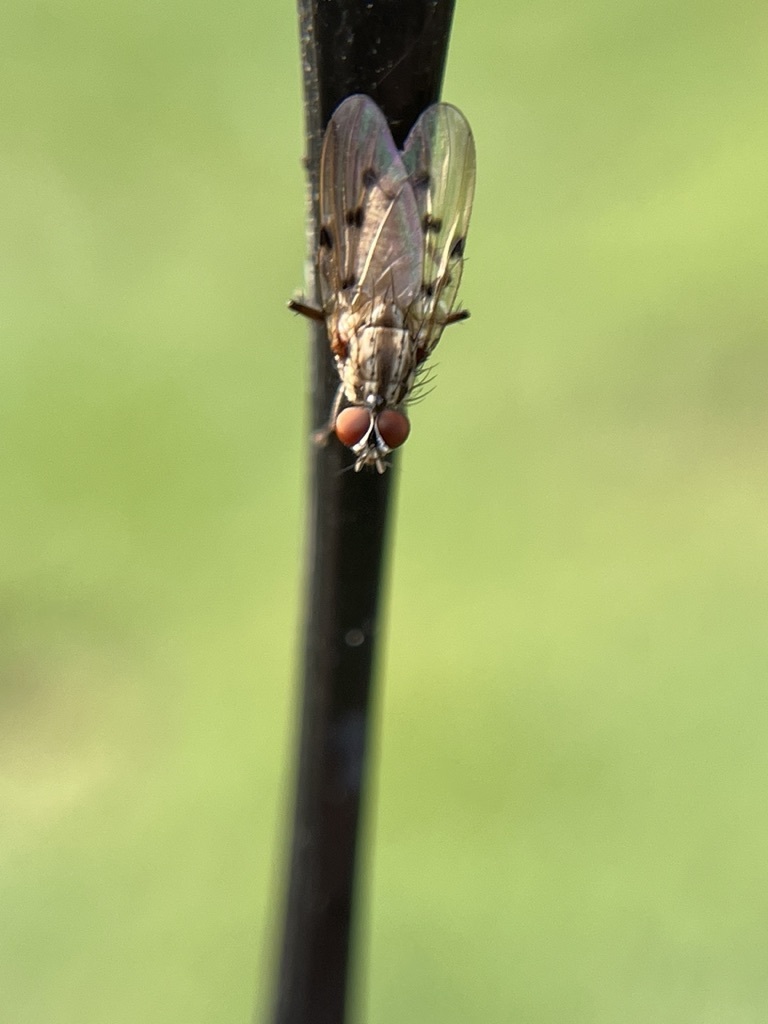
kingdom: Animalia
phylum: Arthropoda
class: Insecta
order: Diptera
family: Anthomyiidae
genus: Anthomyia
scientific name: Anthomyia punctipennis
